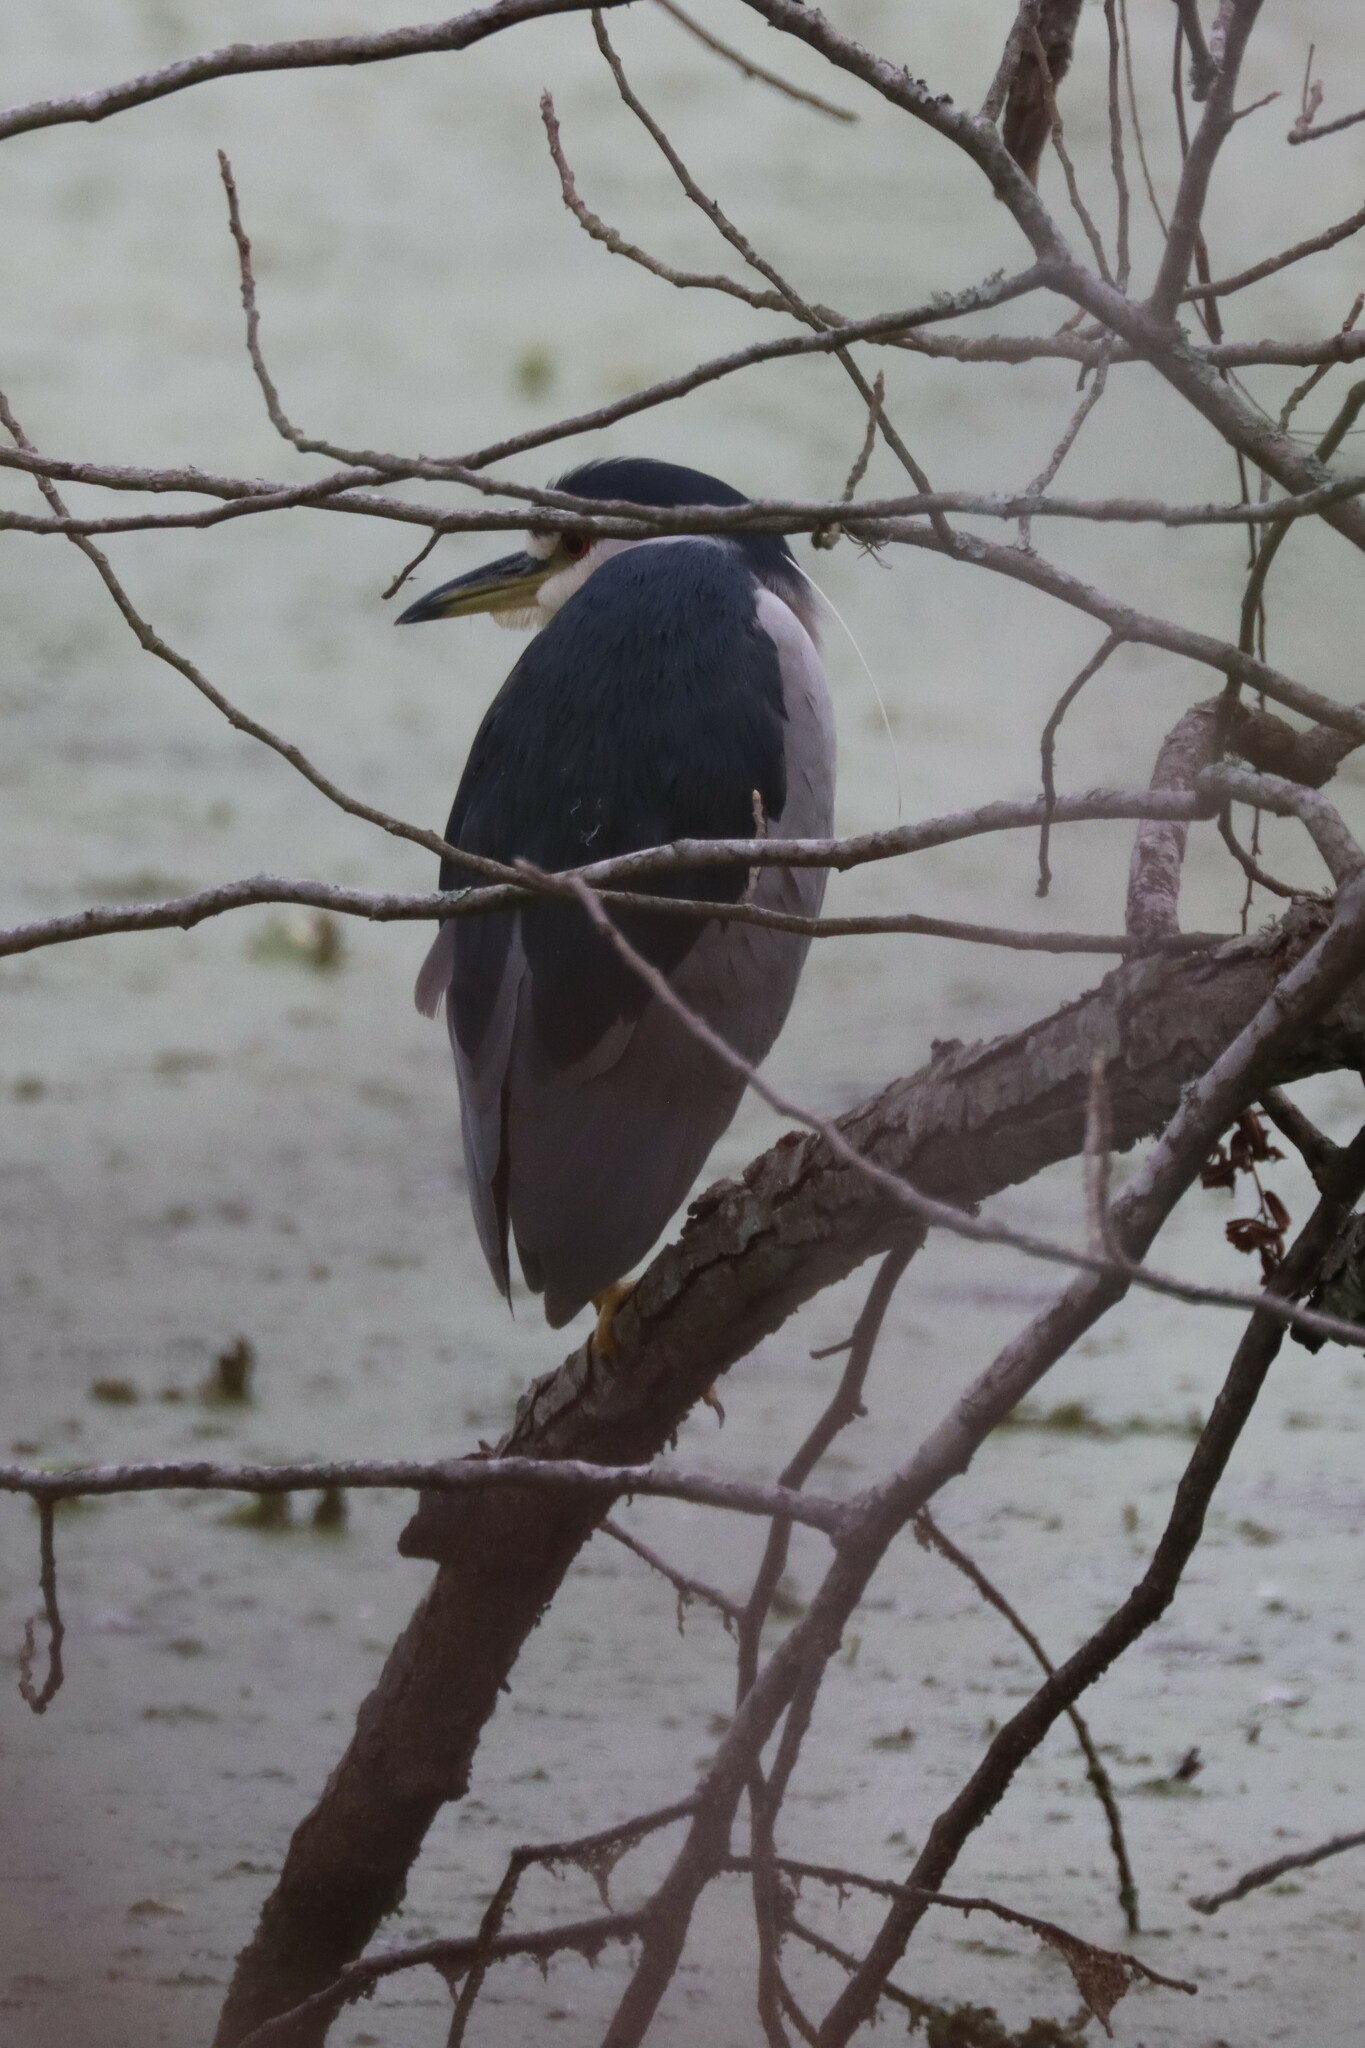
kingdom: Animalia
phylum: Chordata
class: Aves
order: Pelecaniformes
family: Ardeidae
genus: Nycticorax
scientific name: Nycticorax nycticorax
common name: Black-crowned night heron
